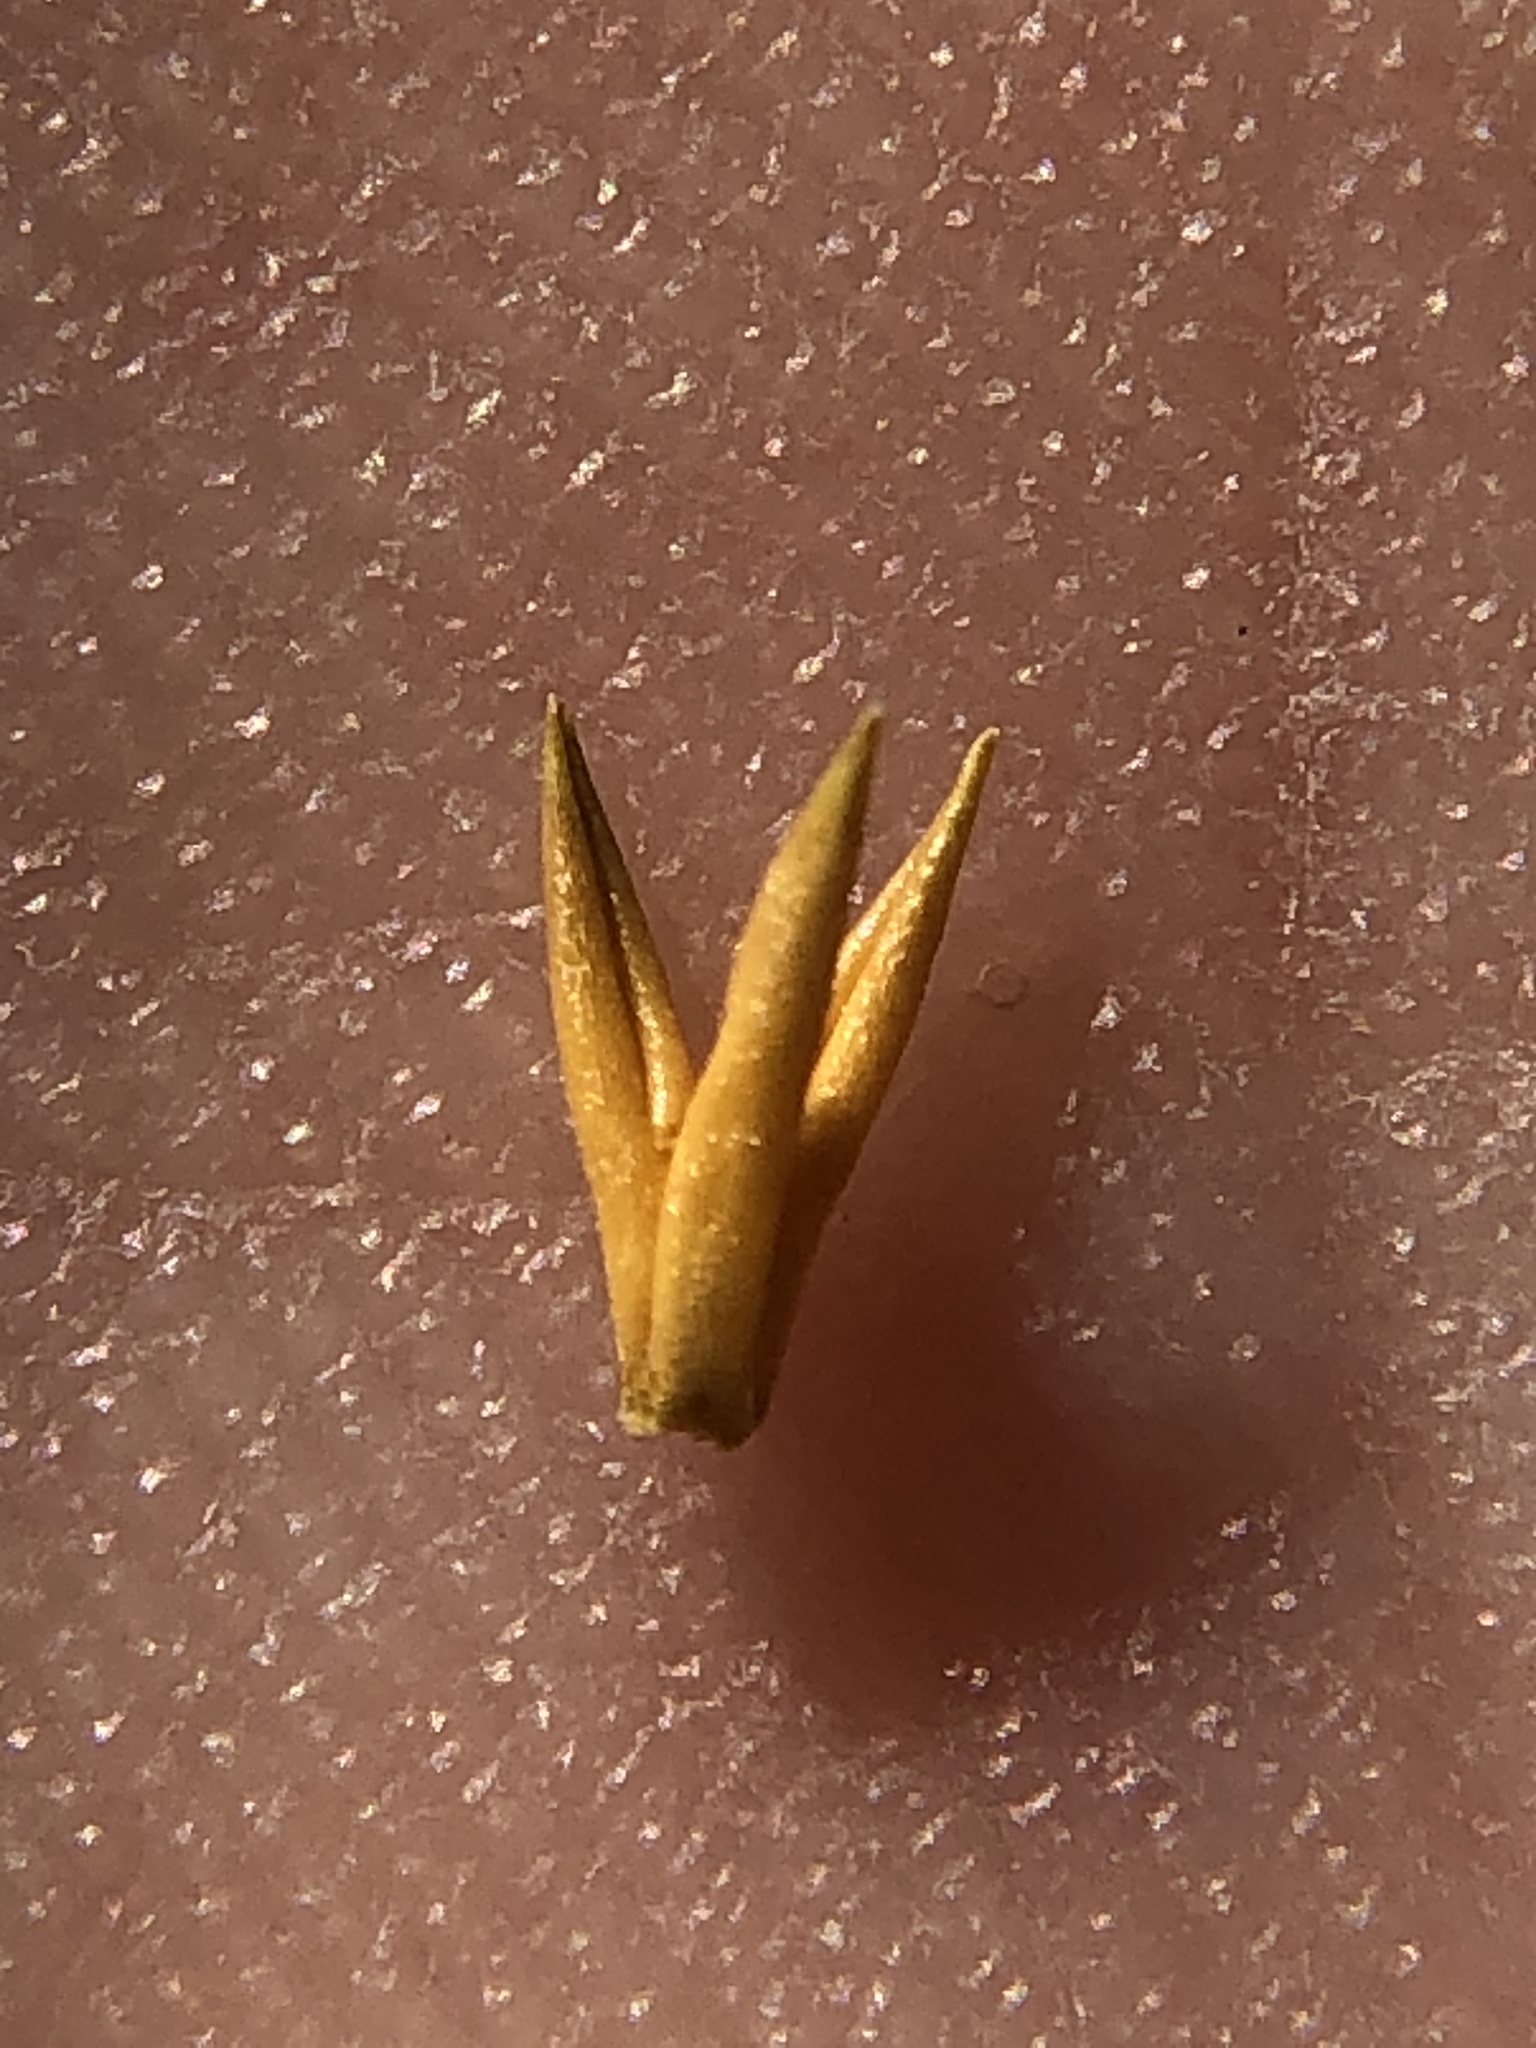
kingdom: Plantae
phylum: Tracheophyta
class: Magnoliopsida
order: Caryophyllales
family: Montiaceae
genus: Claytonia
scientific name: Claytonia perfoliata
